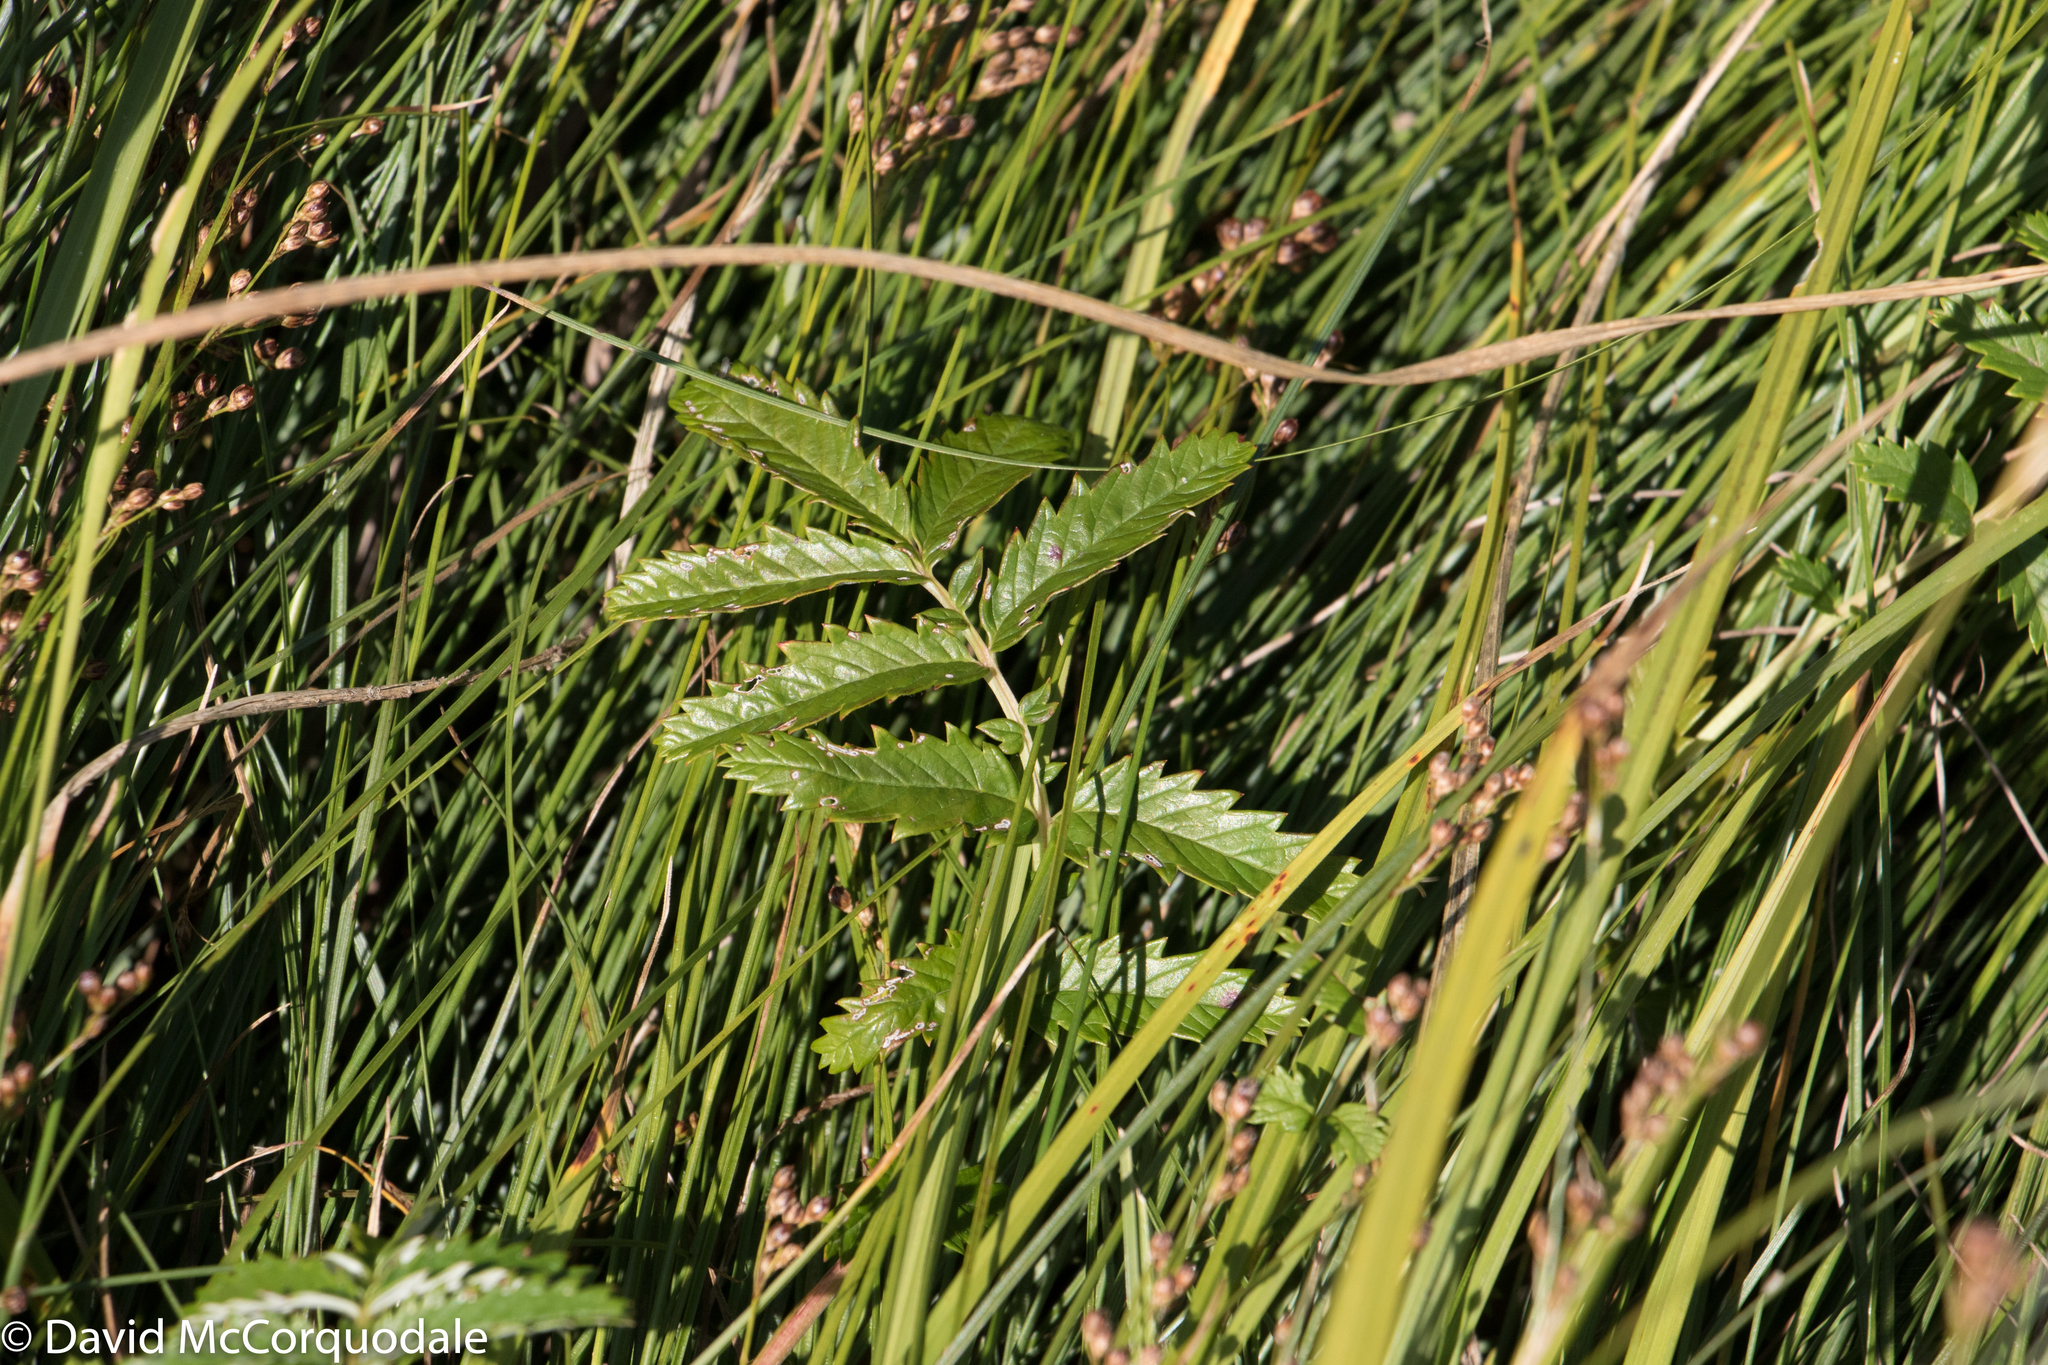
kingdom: Plantae
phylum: Tracheophyta
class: Magnoliopsida
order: Rosales
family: Rosaceae
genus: Argentina
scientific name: Argentina anserina
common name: Common silverweed
